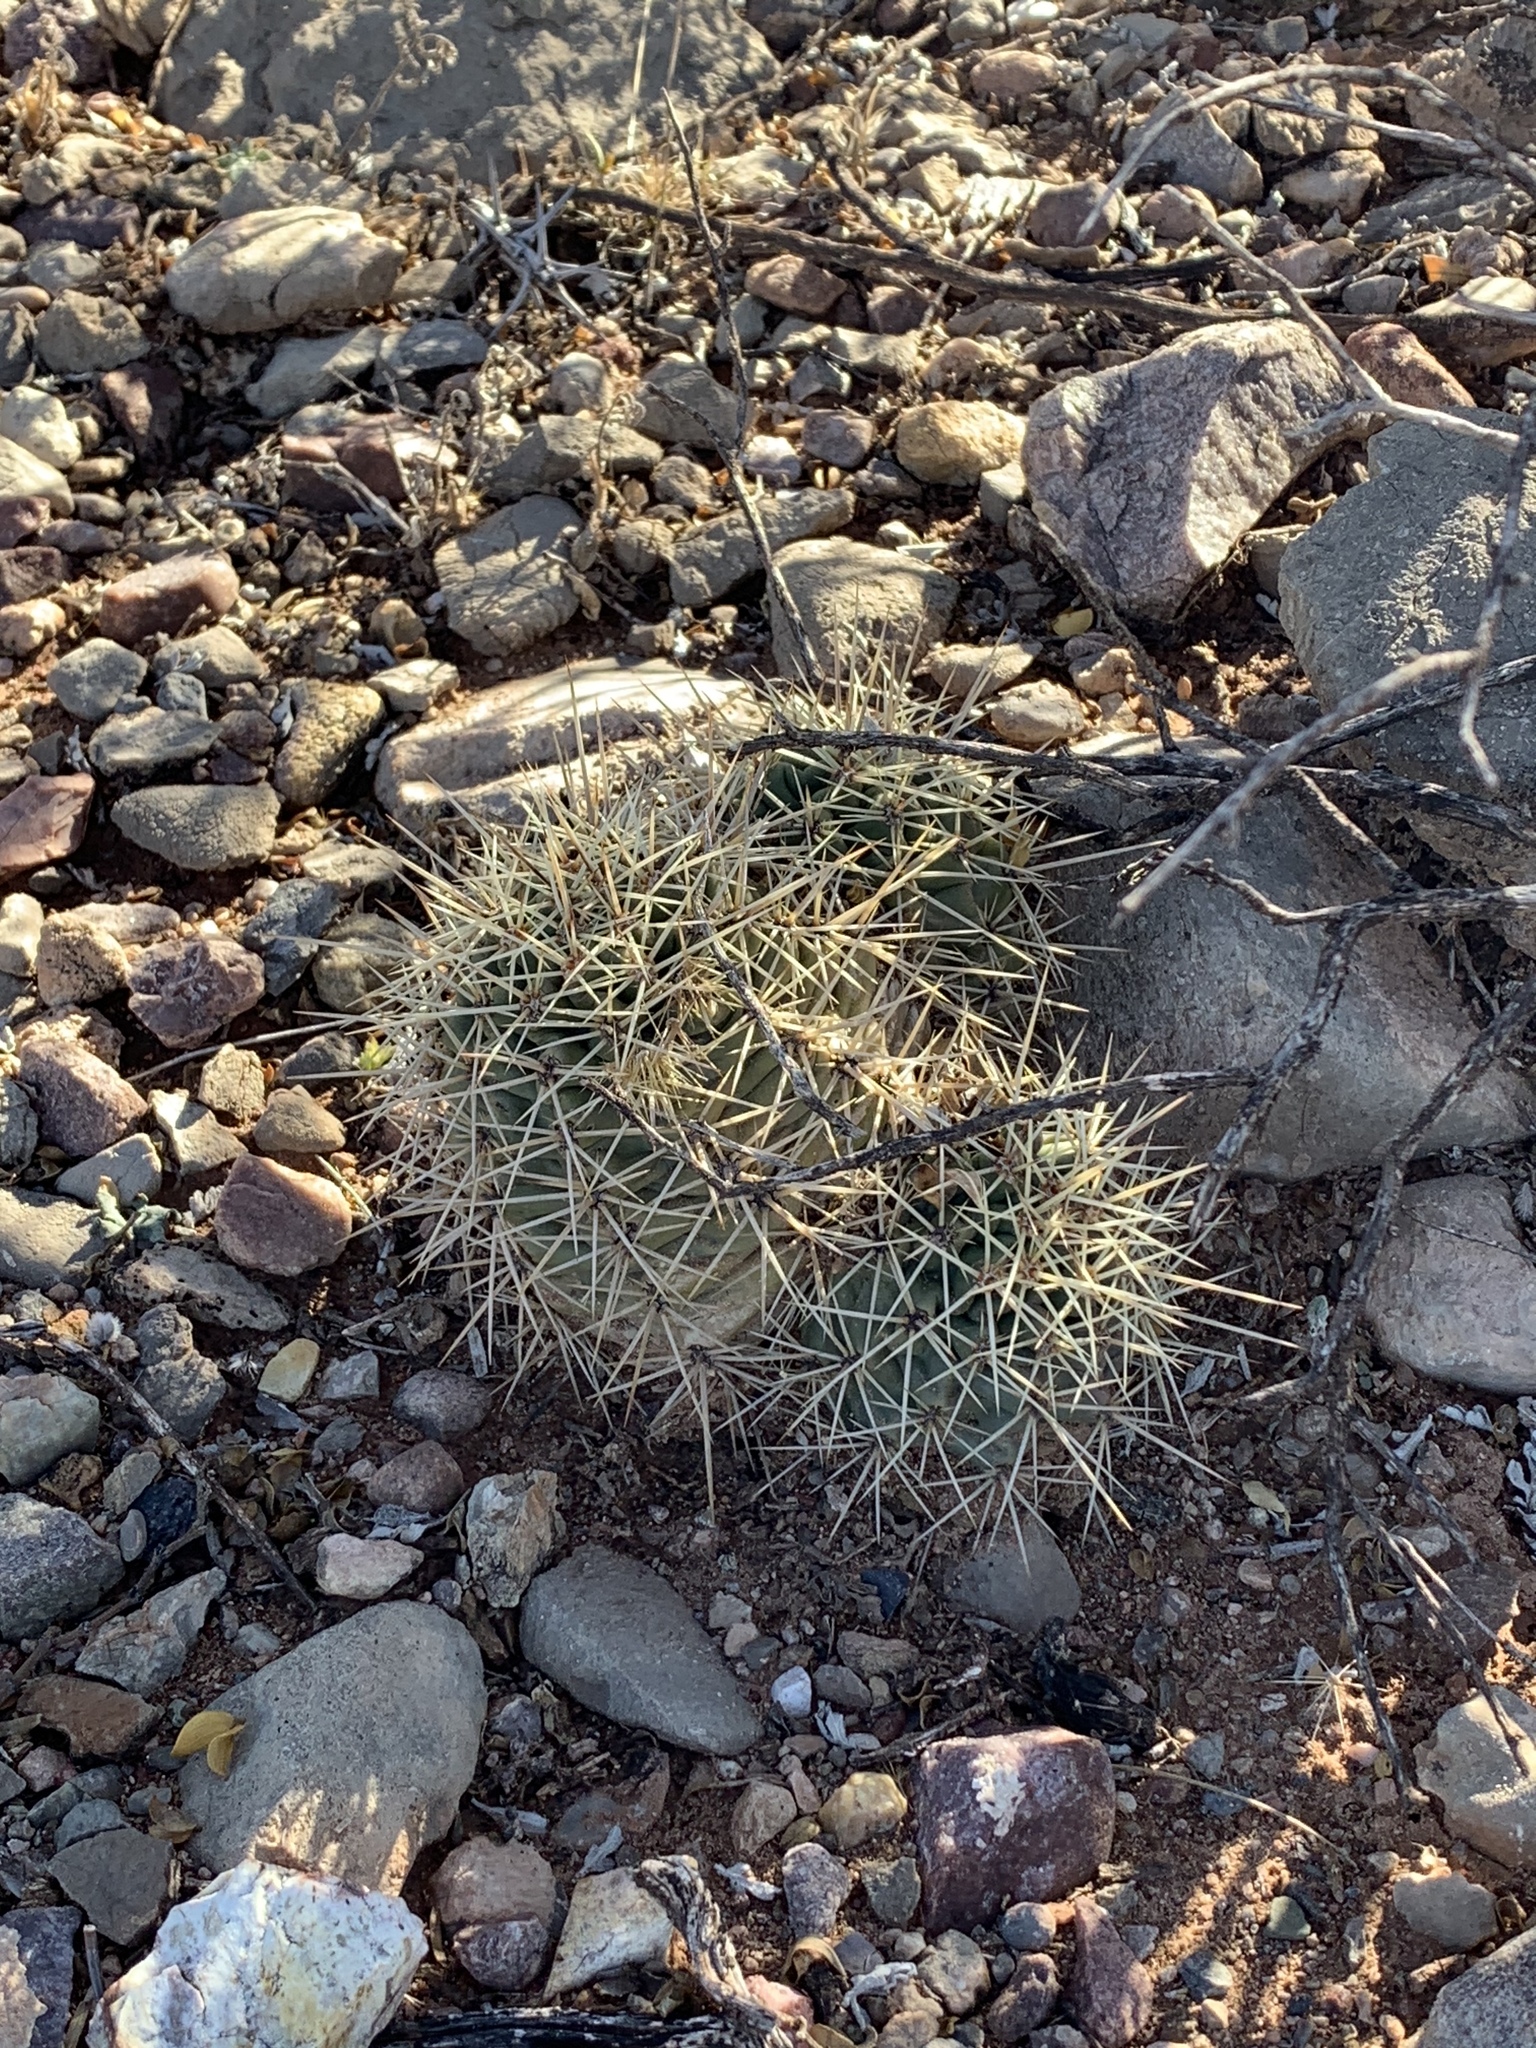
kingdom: Plantae
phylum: Tracheophyta
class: Magnoliopsida
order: Caryophyllales
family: Cactaceae
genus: Echinocereus
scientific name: Echinocereus coccineus
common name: Scarlet hedgehog cactus
